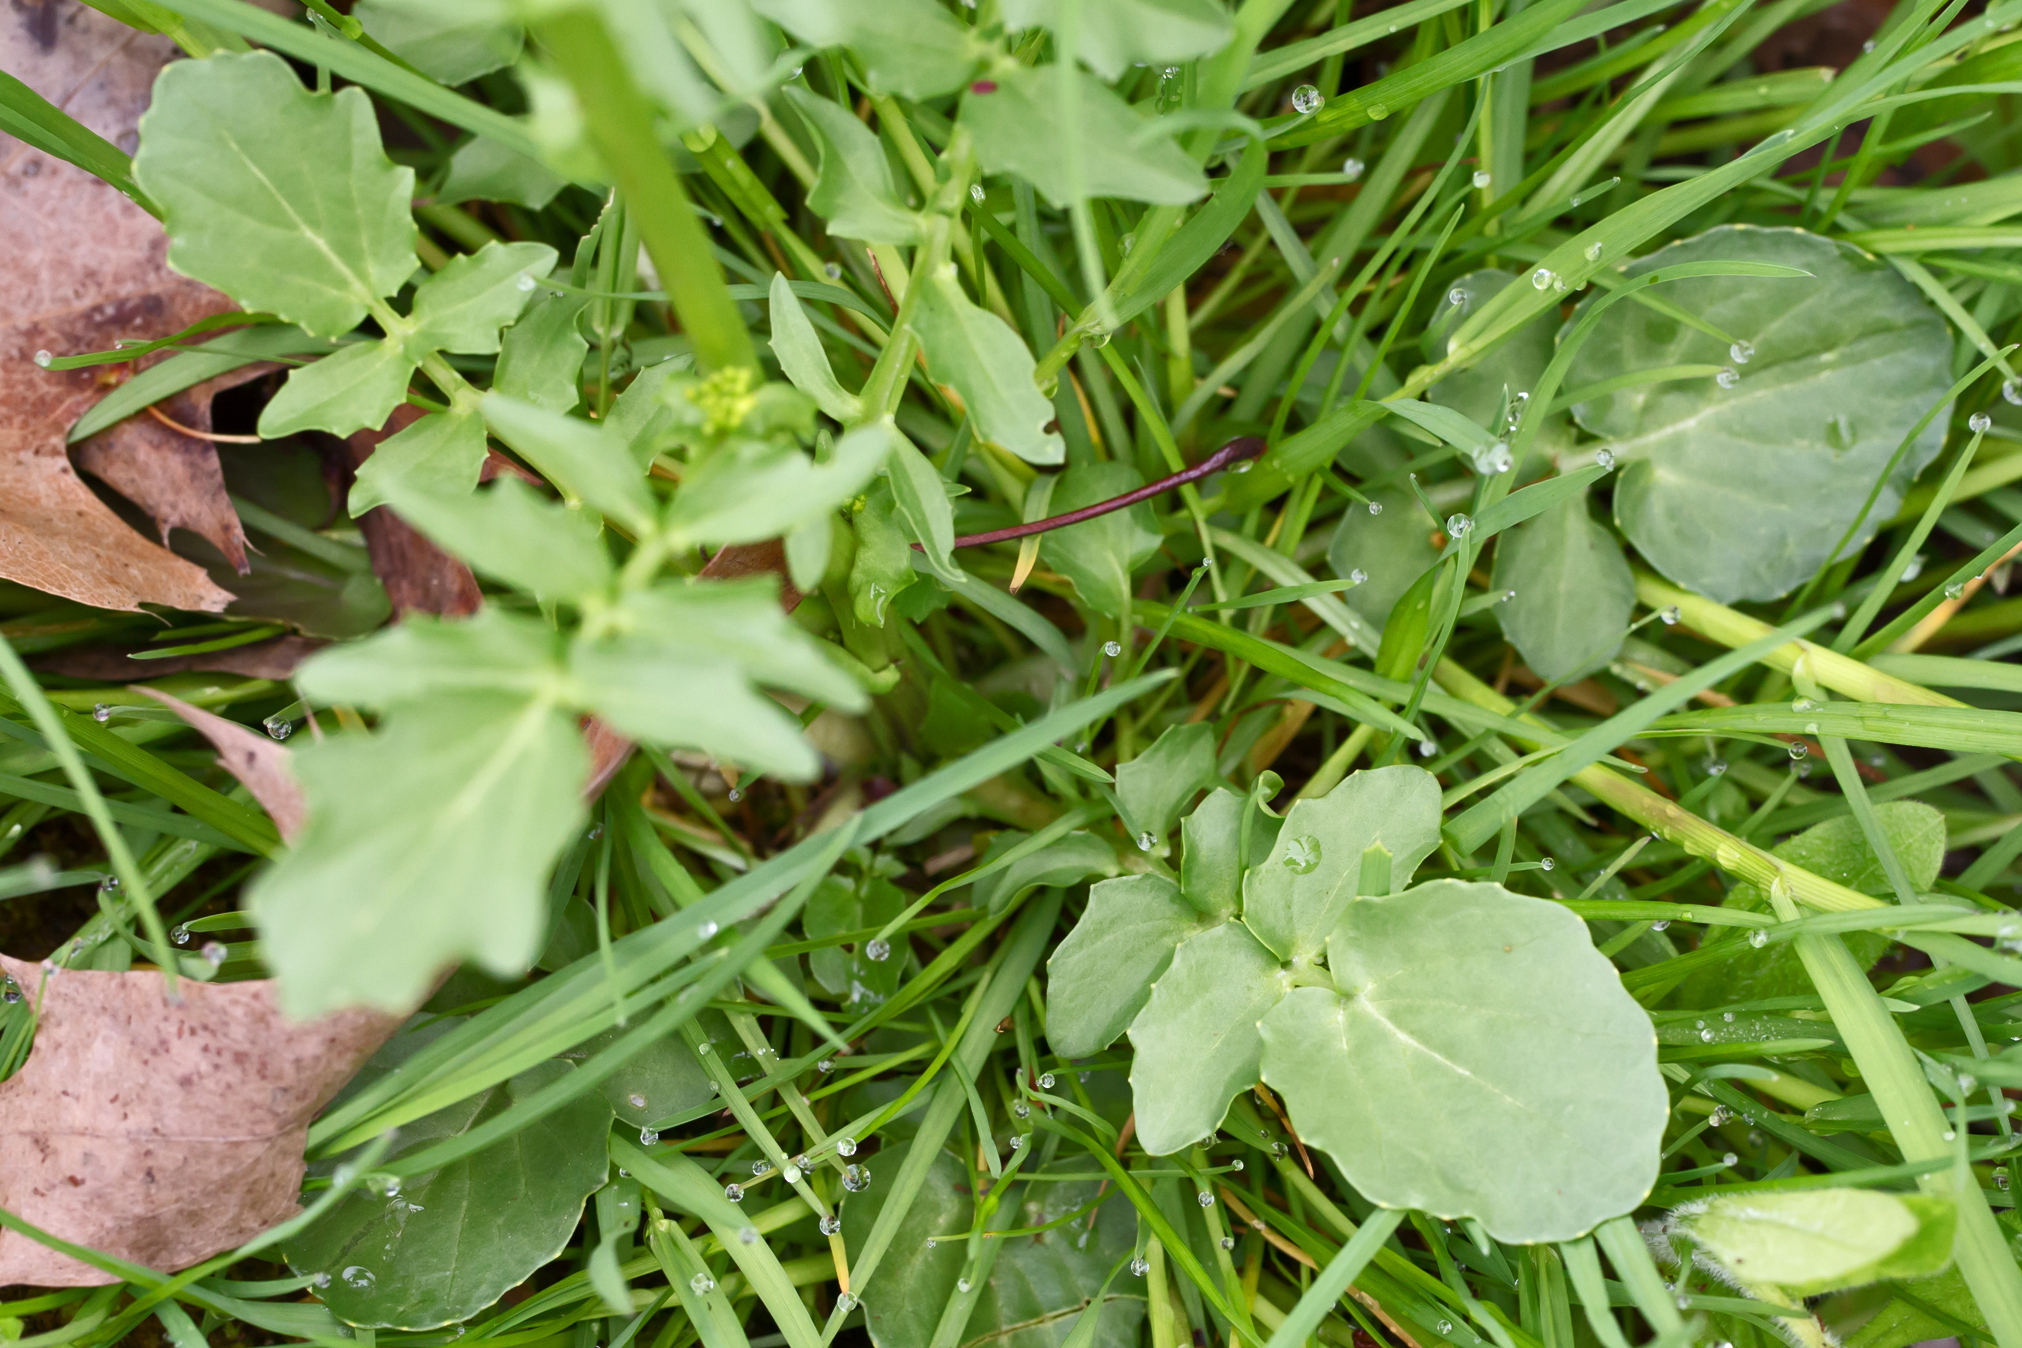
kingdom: Plantae
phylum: Tracheophyta
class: Magnoliopsida
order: Brassicales
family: Brassicaceae
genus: Barbarea
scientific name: Barbarea vulgaris
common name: Cressy-greens
